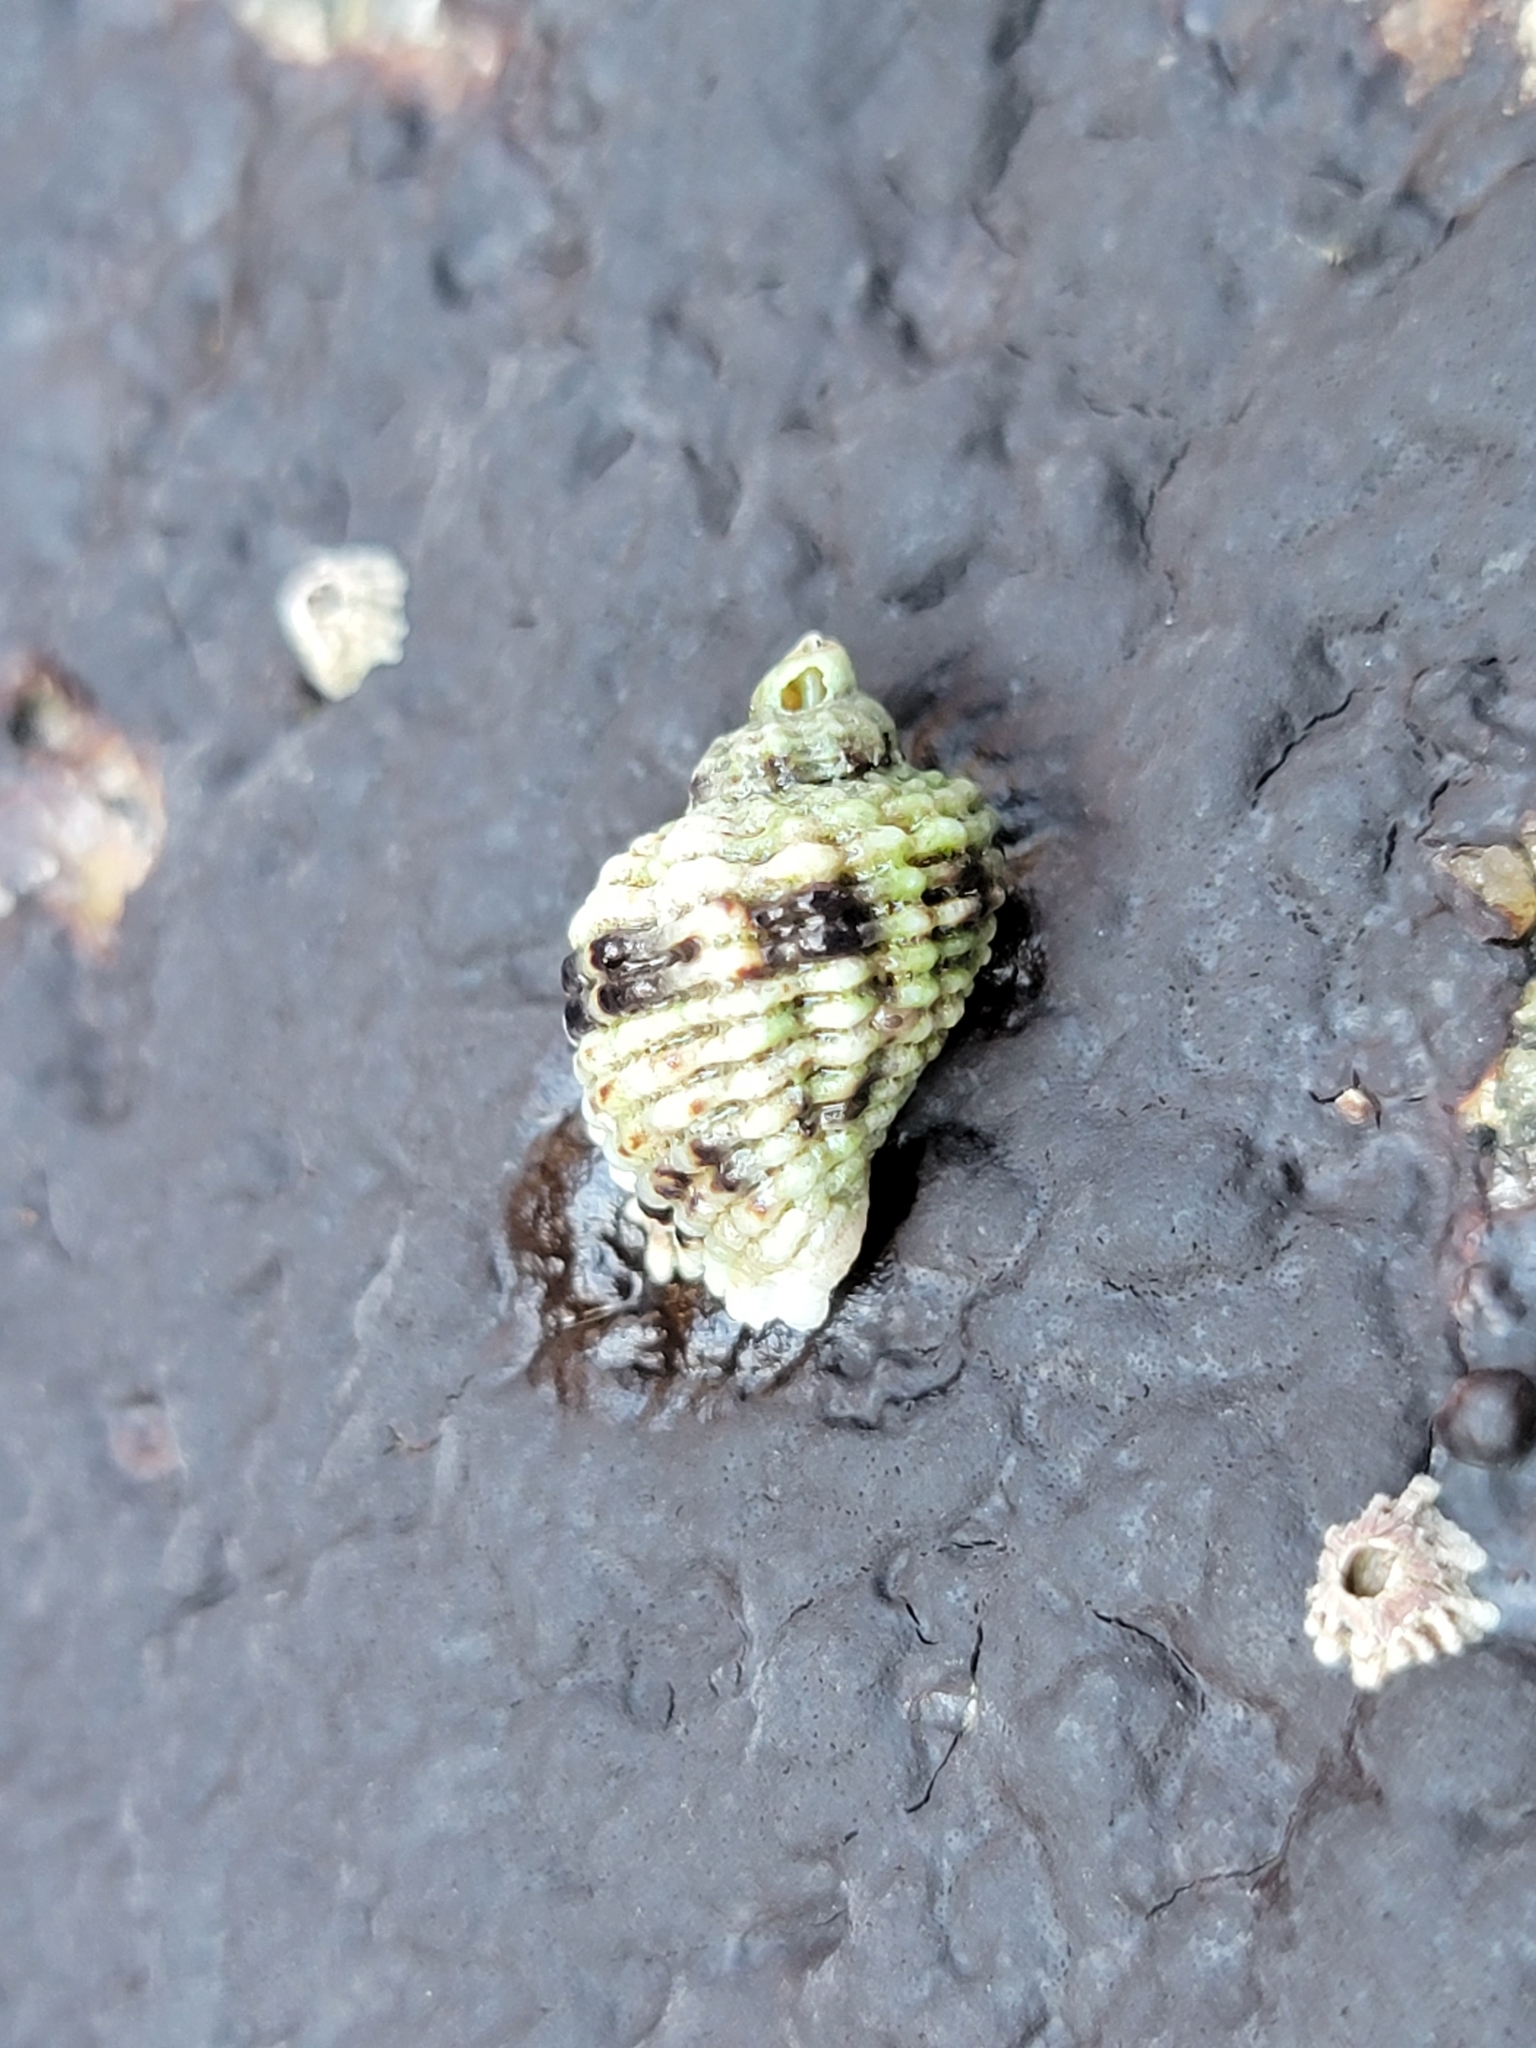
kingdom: Animalia
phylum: Mollusca
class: Gastropoda
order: Neogastropoda
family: Muricidae
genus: Paciocinebrina
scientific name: Paciocinebrina circumtexta
